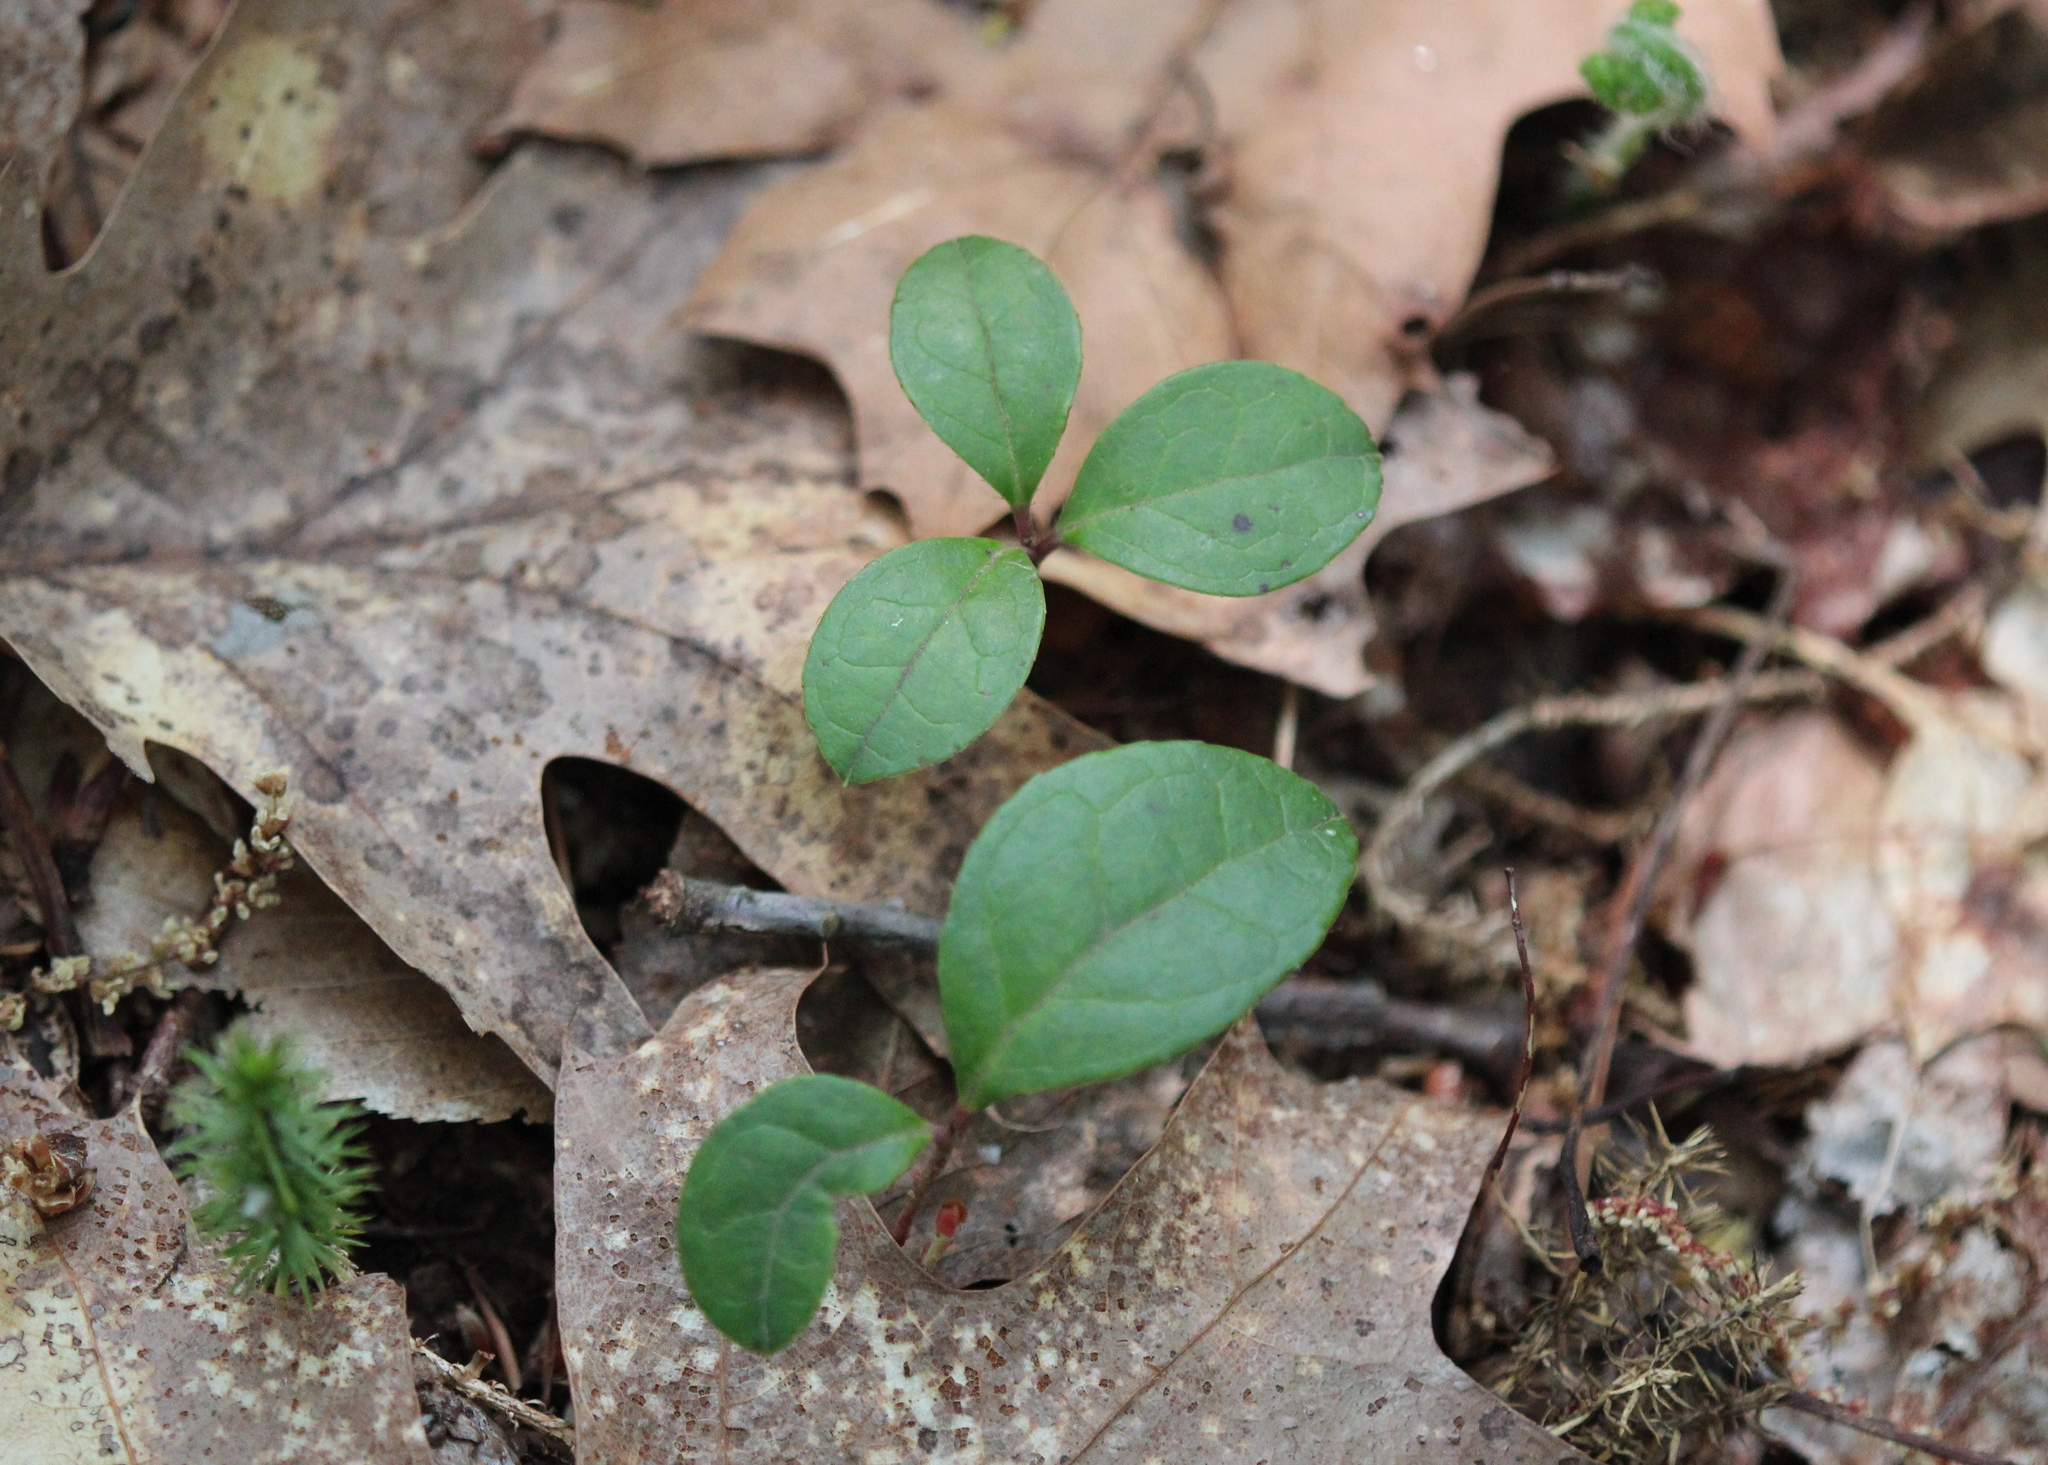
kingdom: Plantae
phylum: Tracheophyta
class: Magnoliopsida
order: Ericales
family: Ericaceae
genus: Gaultheria
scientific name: Gaultheria procumbens
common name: Checkerberry
